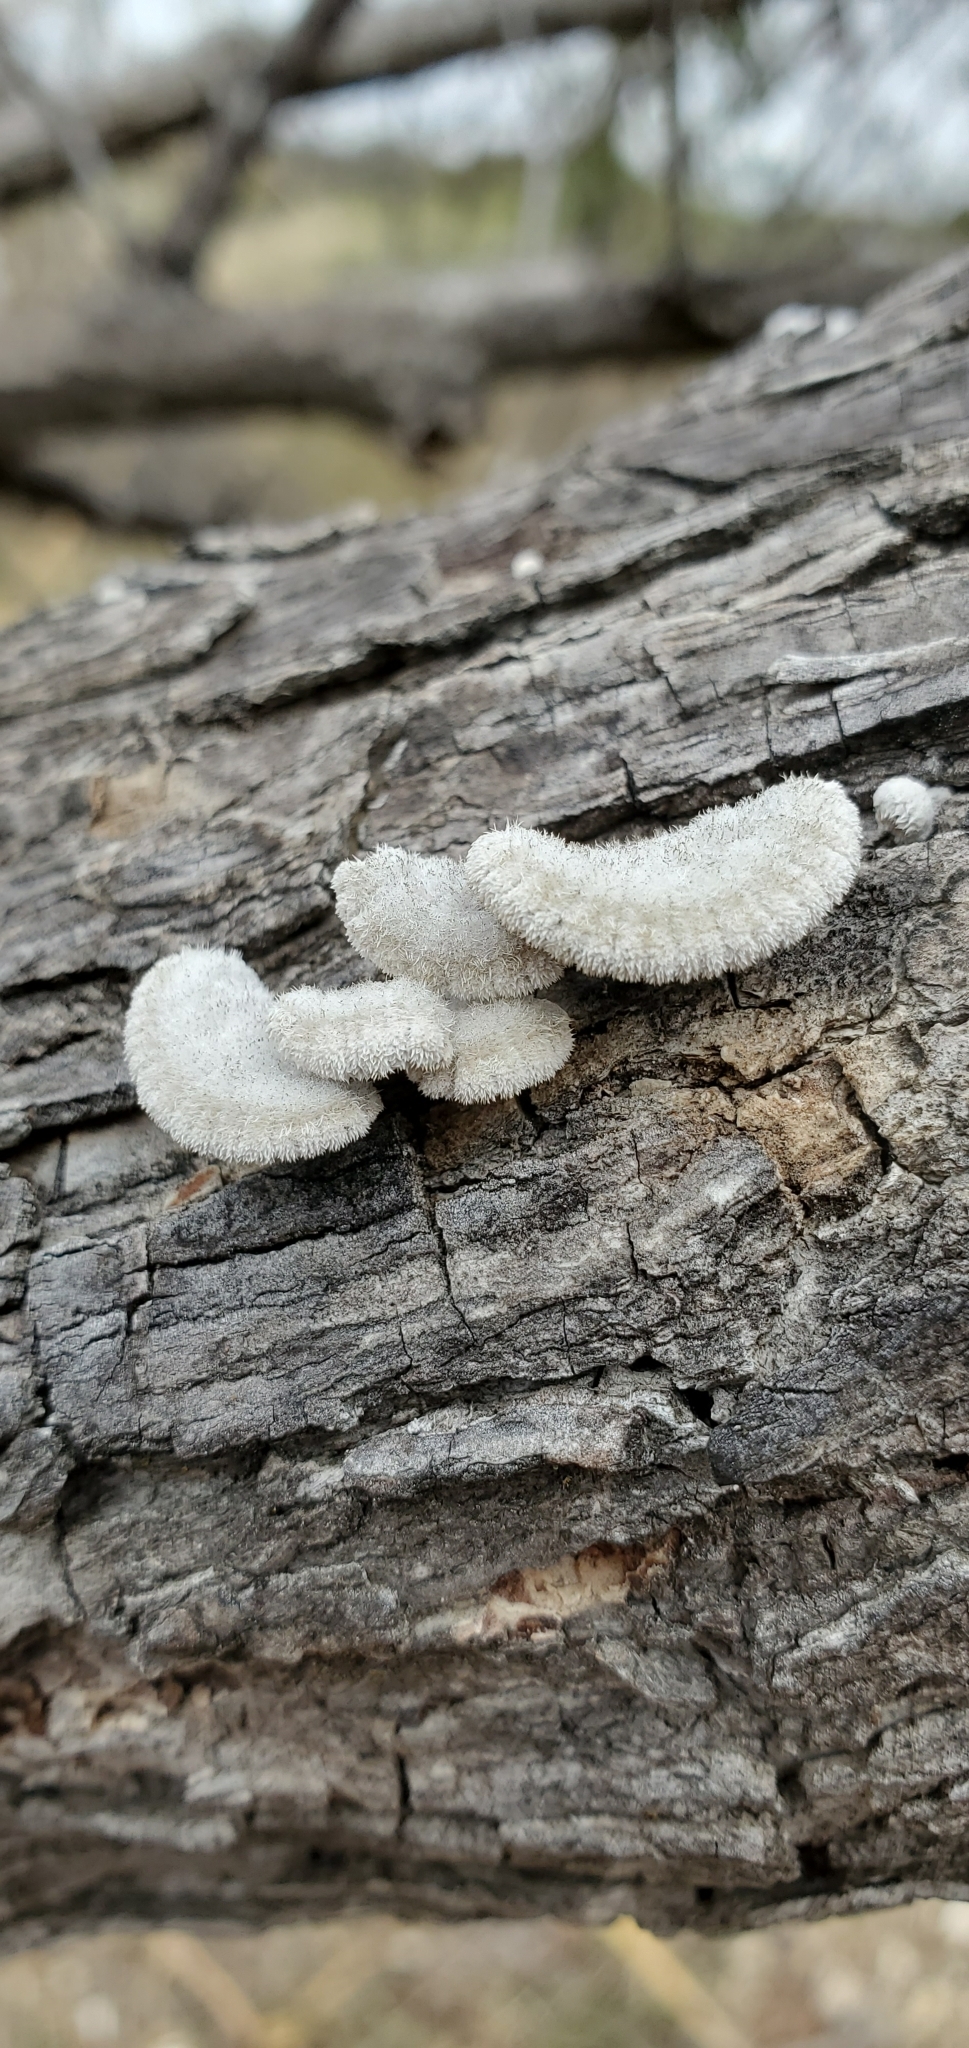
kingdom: Fungi
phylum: Basidiomycota
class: Agaricomycetes
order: Agaricales
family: Schizophyllaceae
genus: Schizophyllum
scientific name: Schizophyllum commune
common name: Common porecrust
